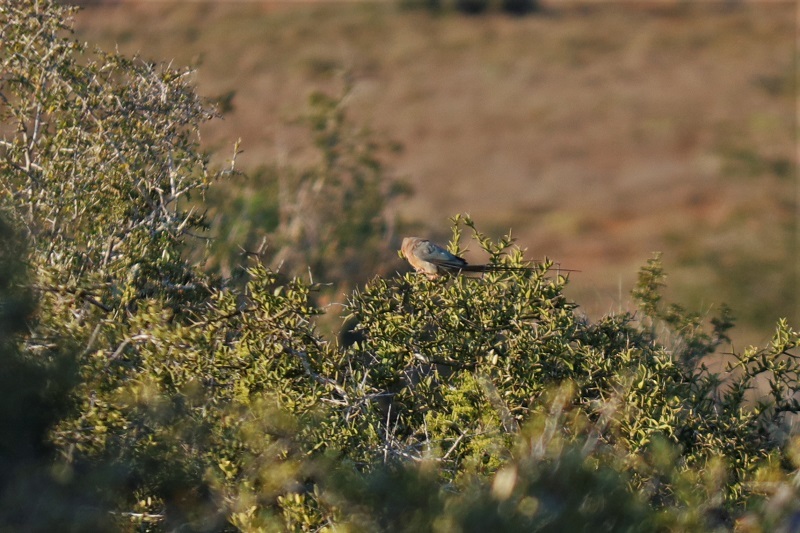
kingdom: Animalia
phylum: Chordata
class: Aves
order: Coliiformes
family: Coliidae
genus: Urocolius
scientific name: Urocolius indicus
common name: Red-faced mousebird
